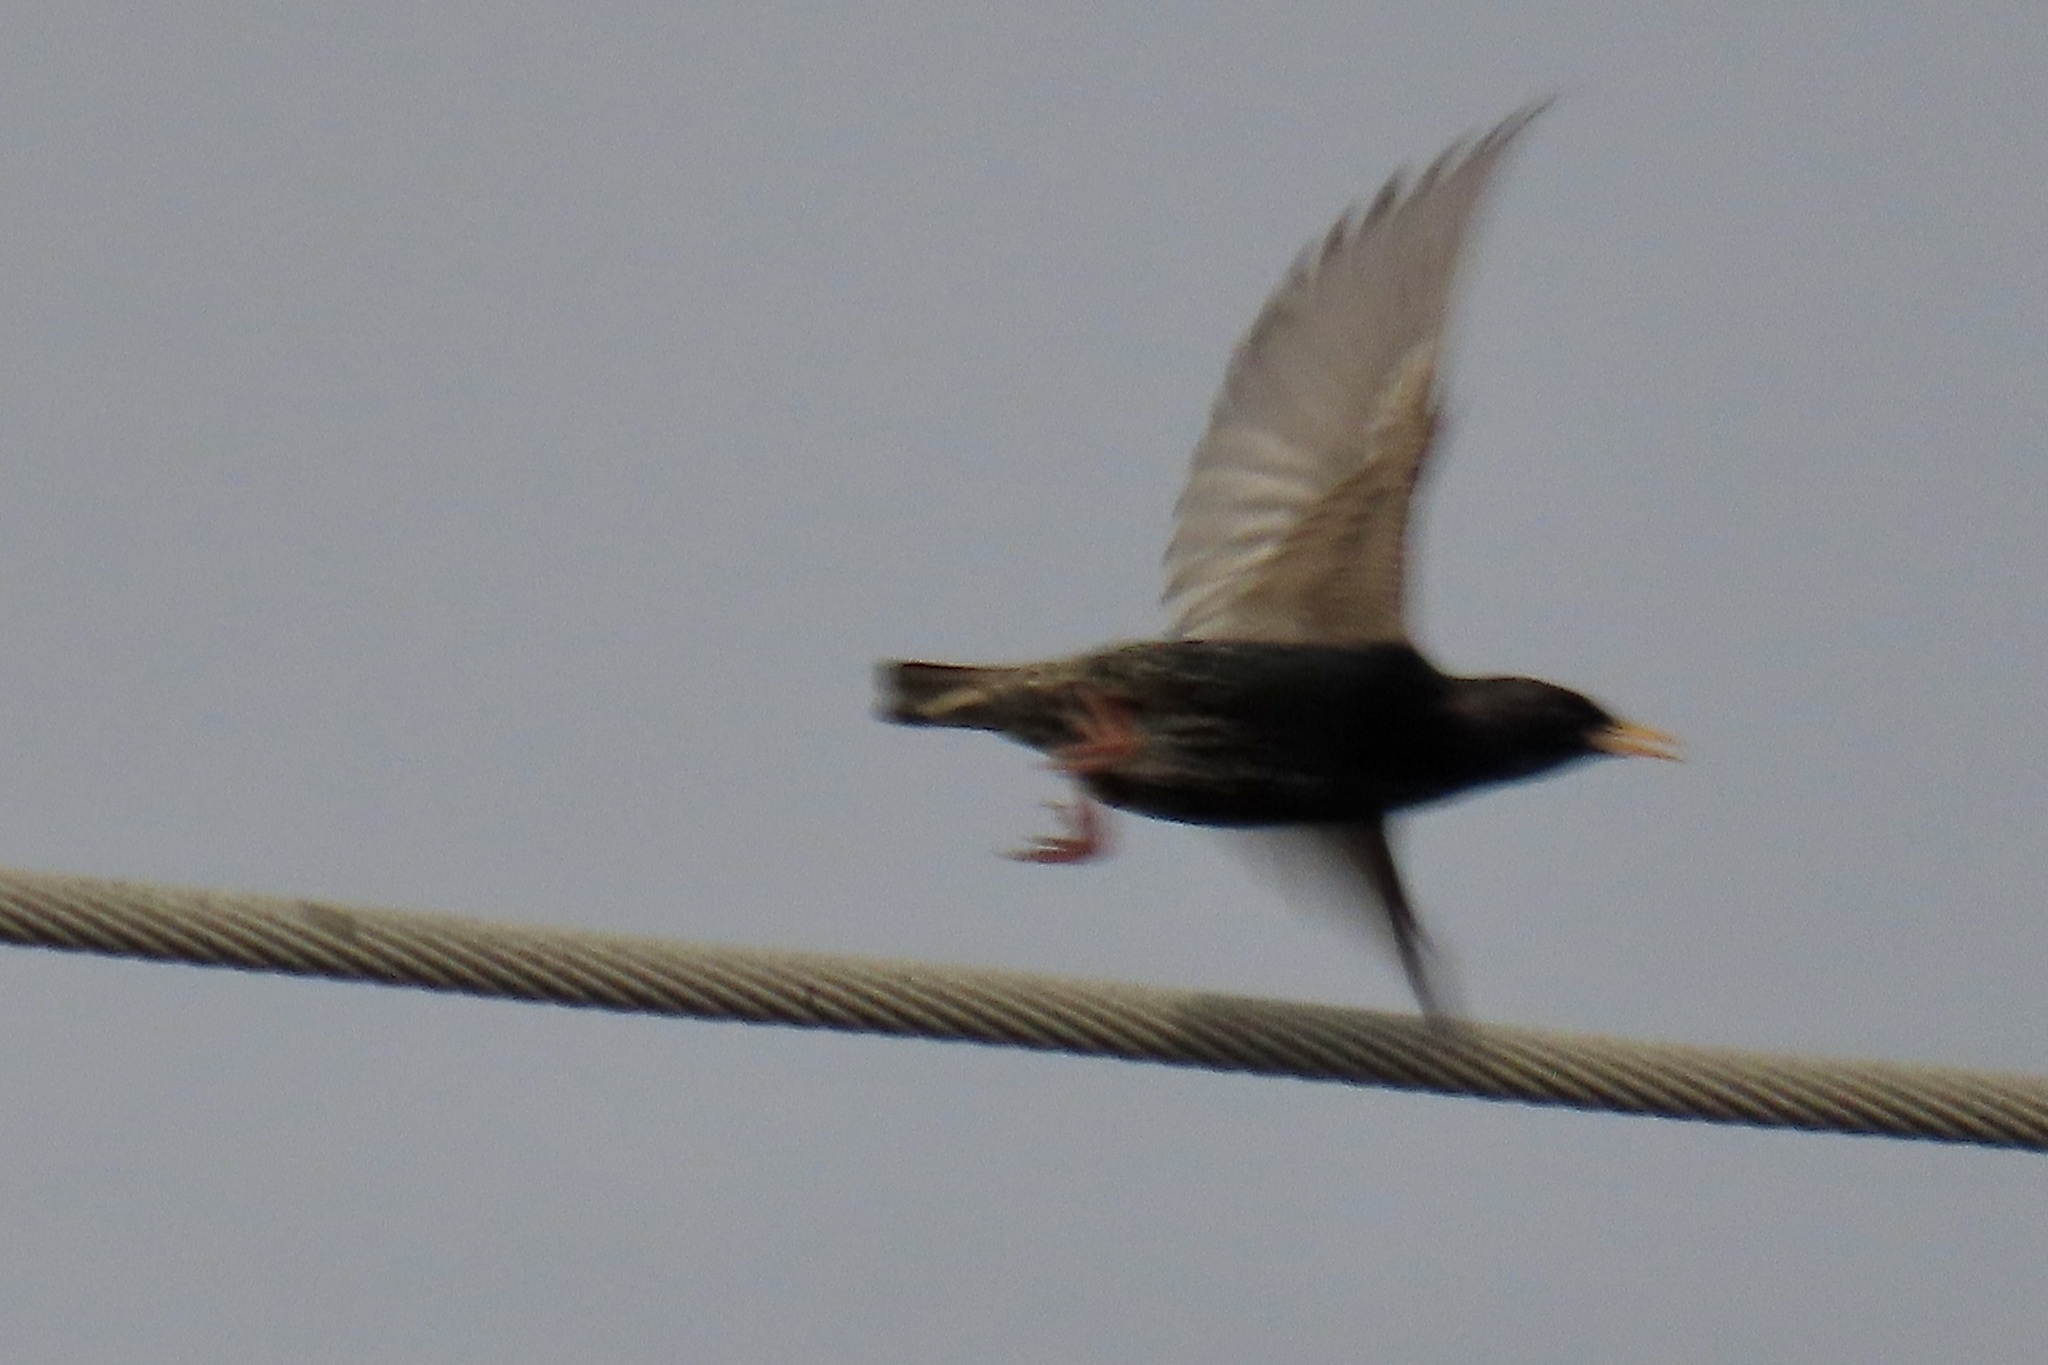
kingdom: Animalia
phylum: Chordata
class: Aves
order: Passeriformes
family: Sturnidae
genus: Sturnus
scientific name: Sturnus vulgaris
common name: Common starling
